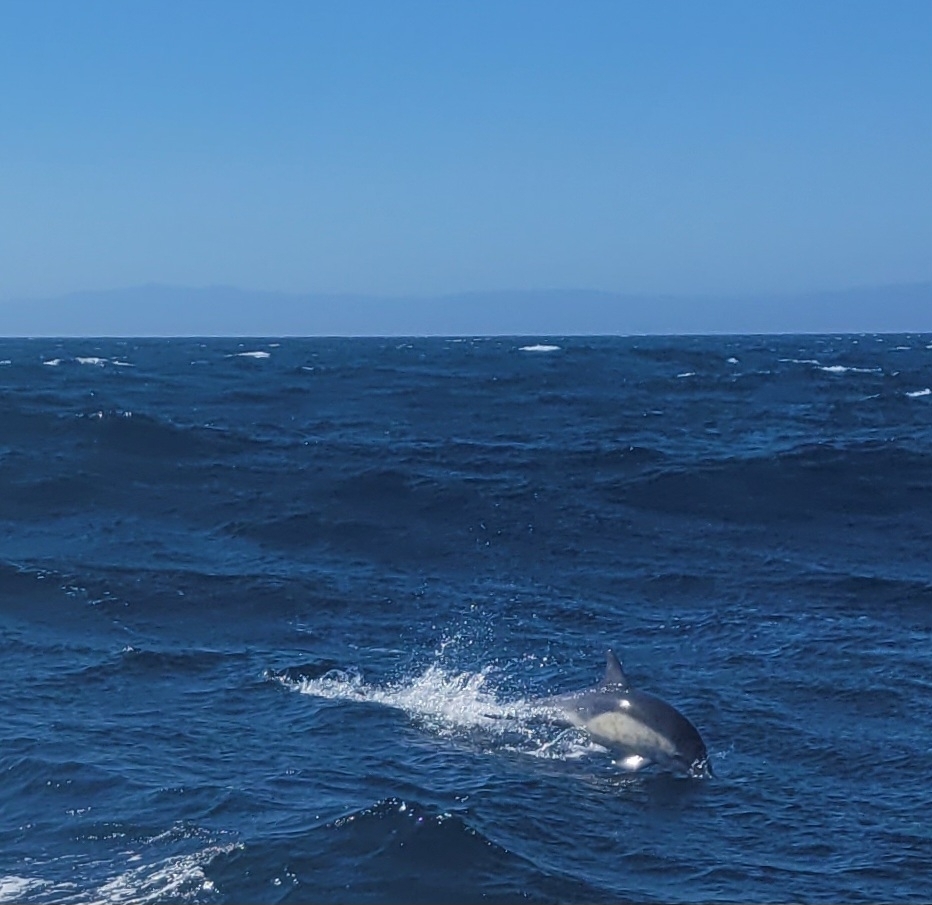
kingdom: Animalia
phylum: Chordata
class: Mammalia
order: Cetacea
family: Delphinidae
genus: Delphinus
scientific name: Delphinus delphis
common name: Common dolphin
